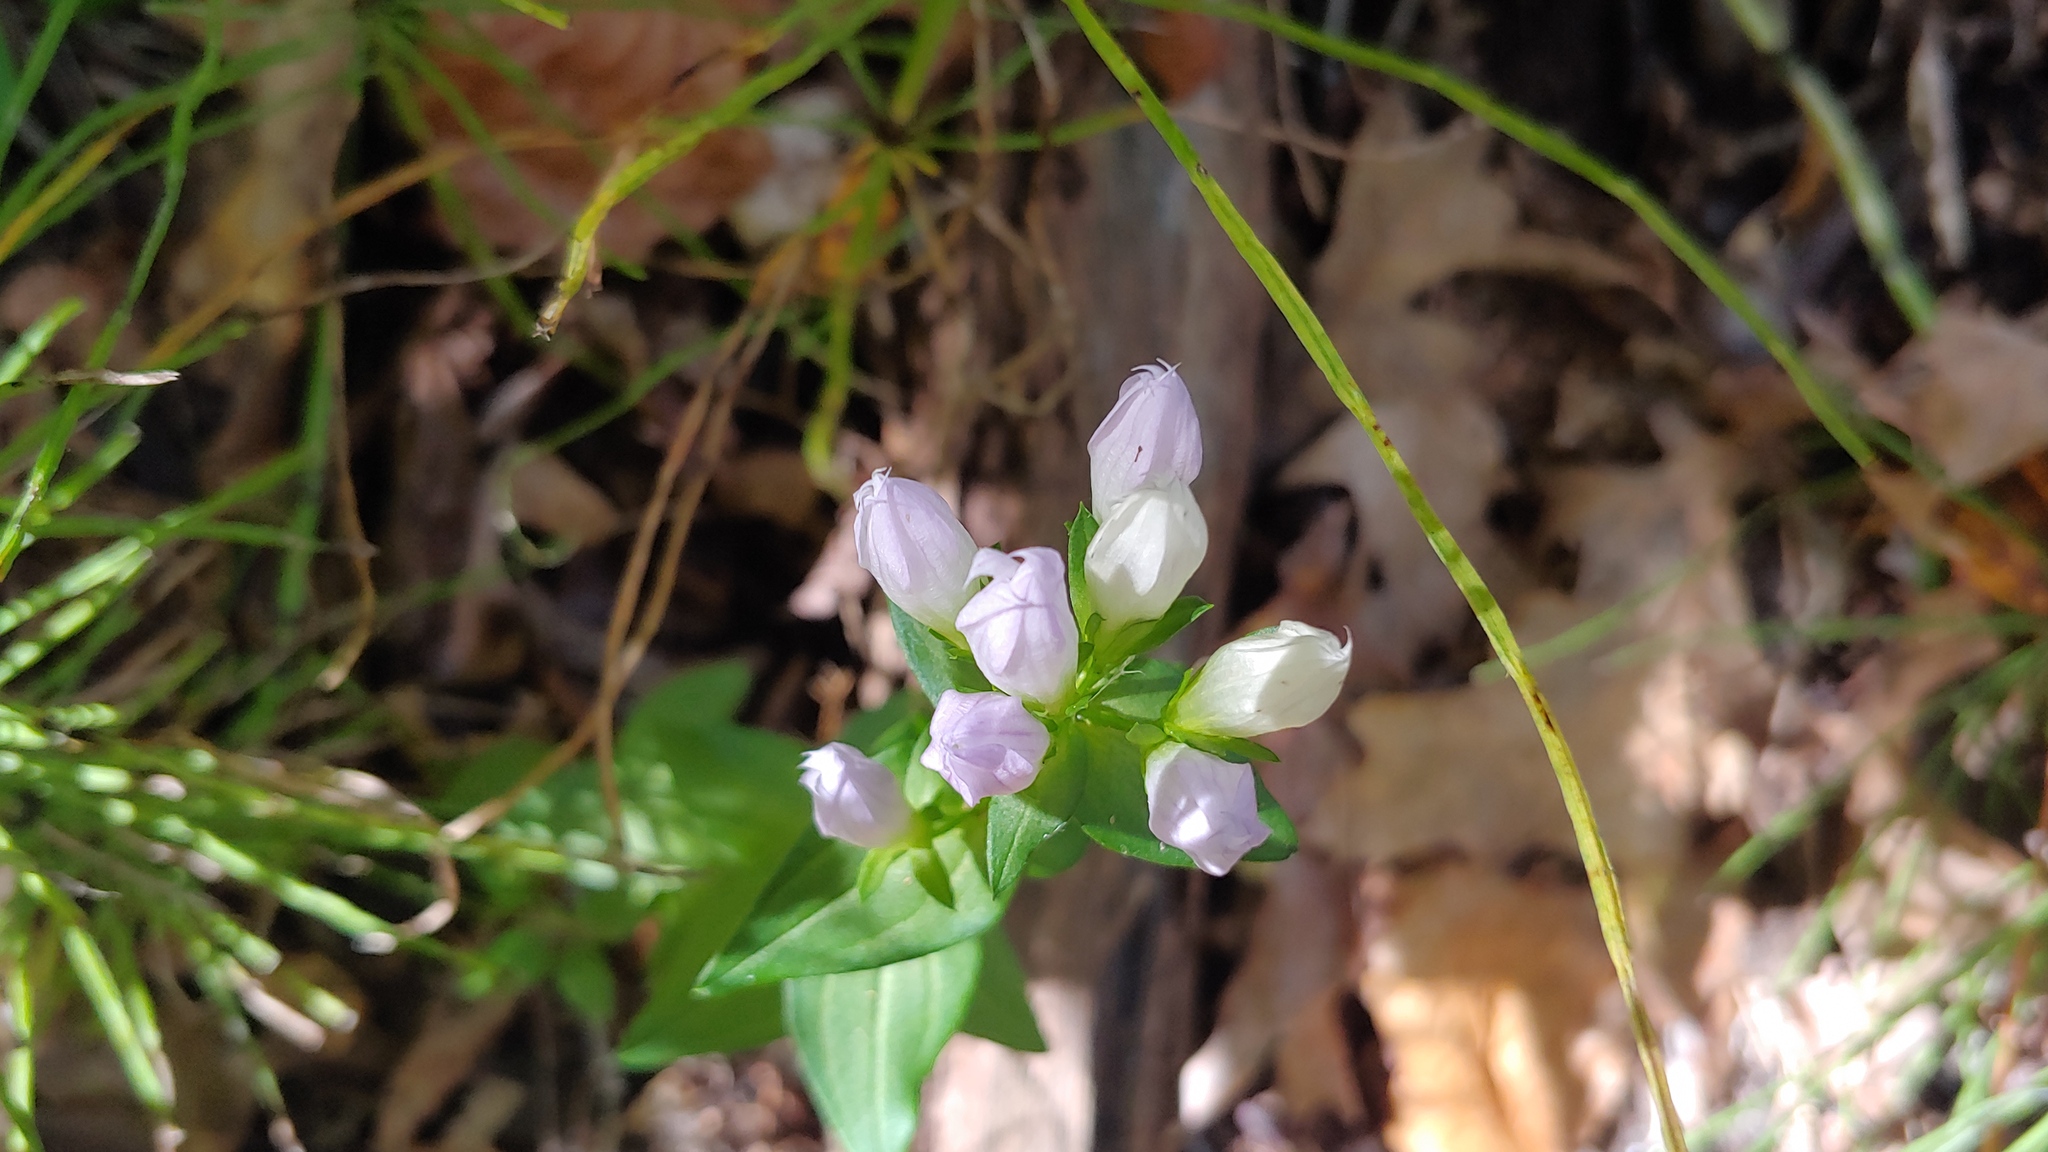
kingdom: Plantae
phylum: Tracheophyta
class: Magnoliopsida
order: Gentianales
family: Gentianaceae
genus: Gentianella
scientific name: Gentianella quinquefolia
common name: Agueweed
